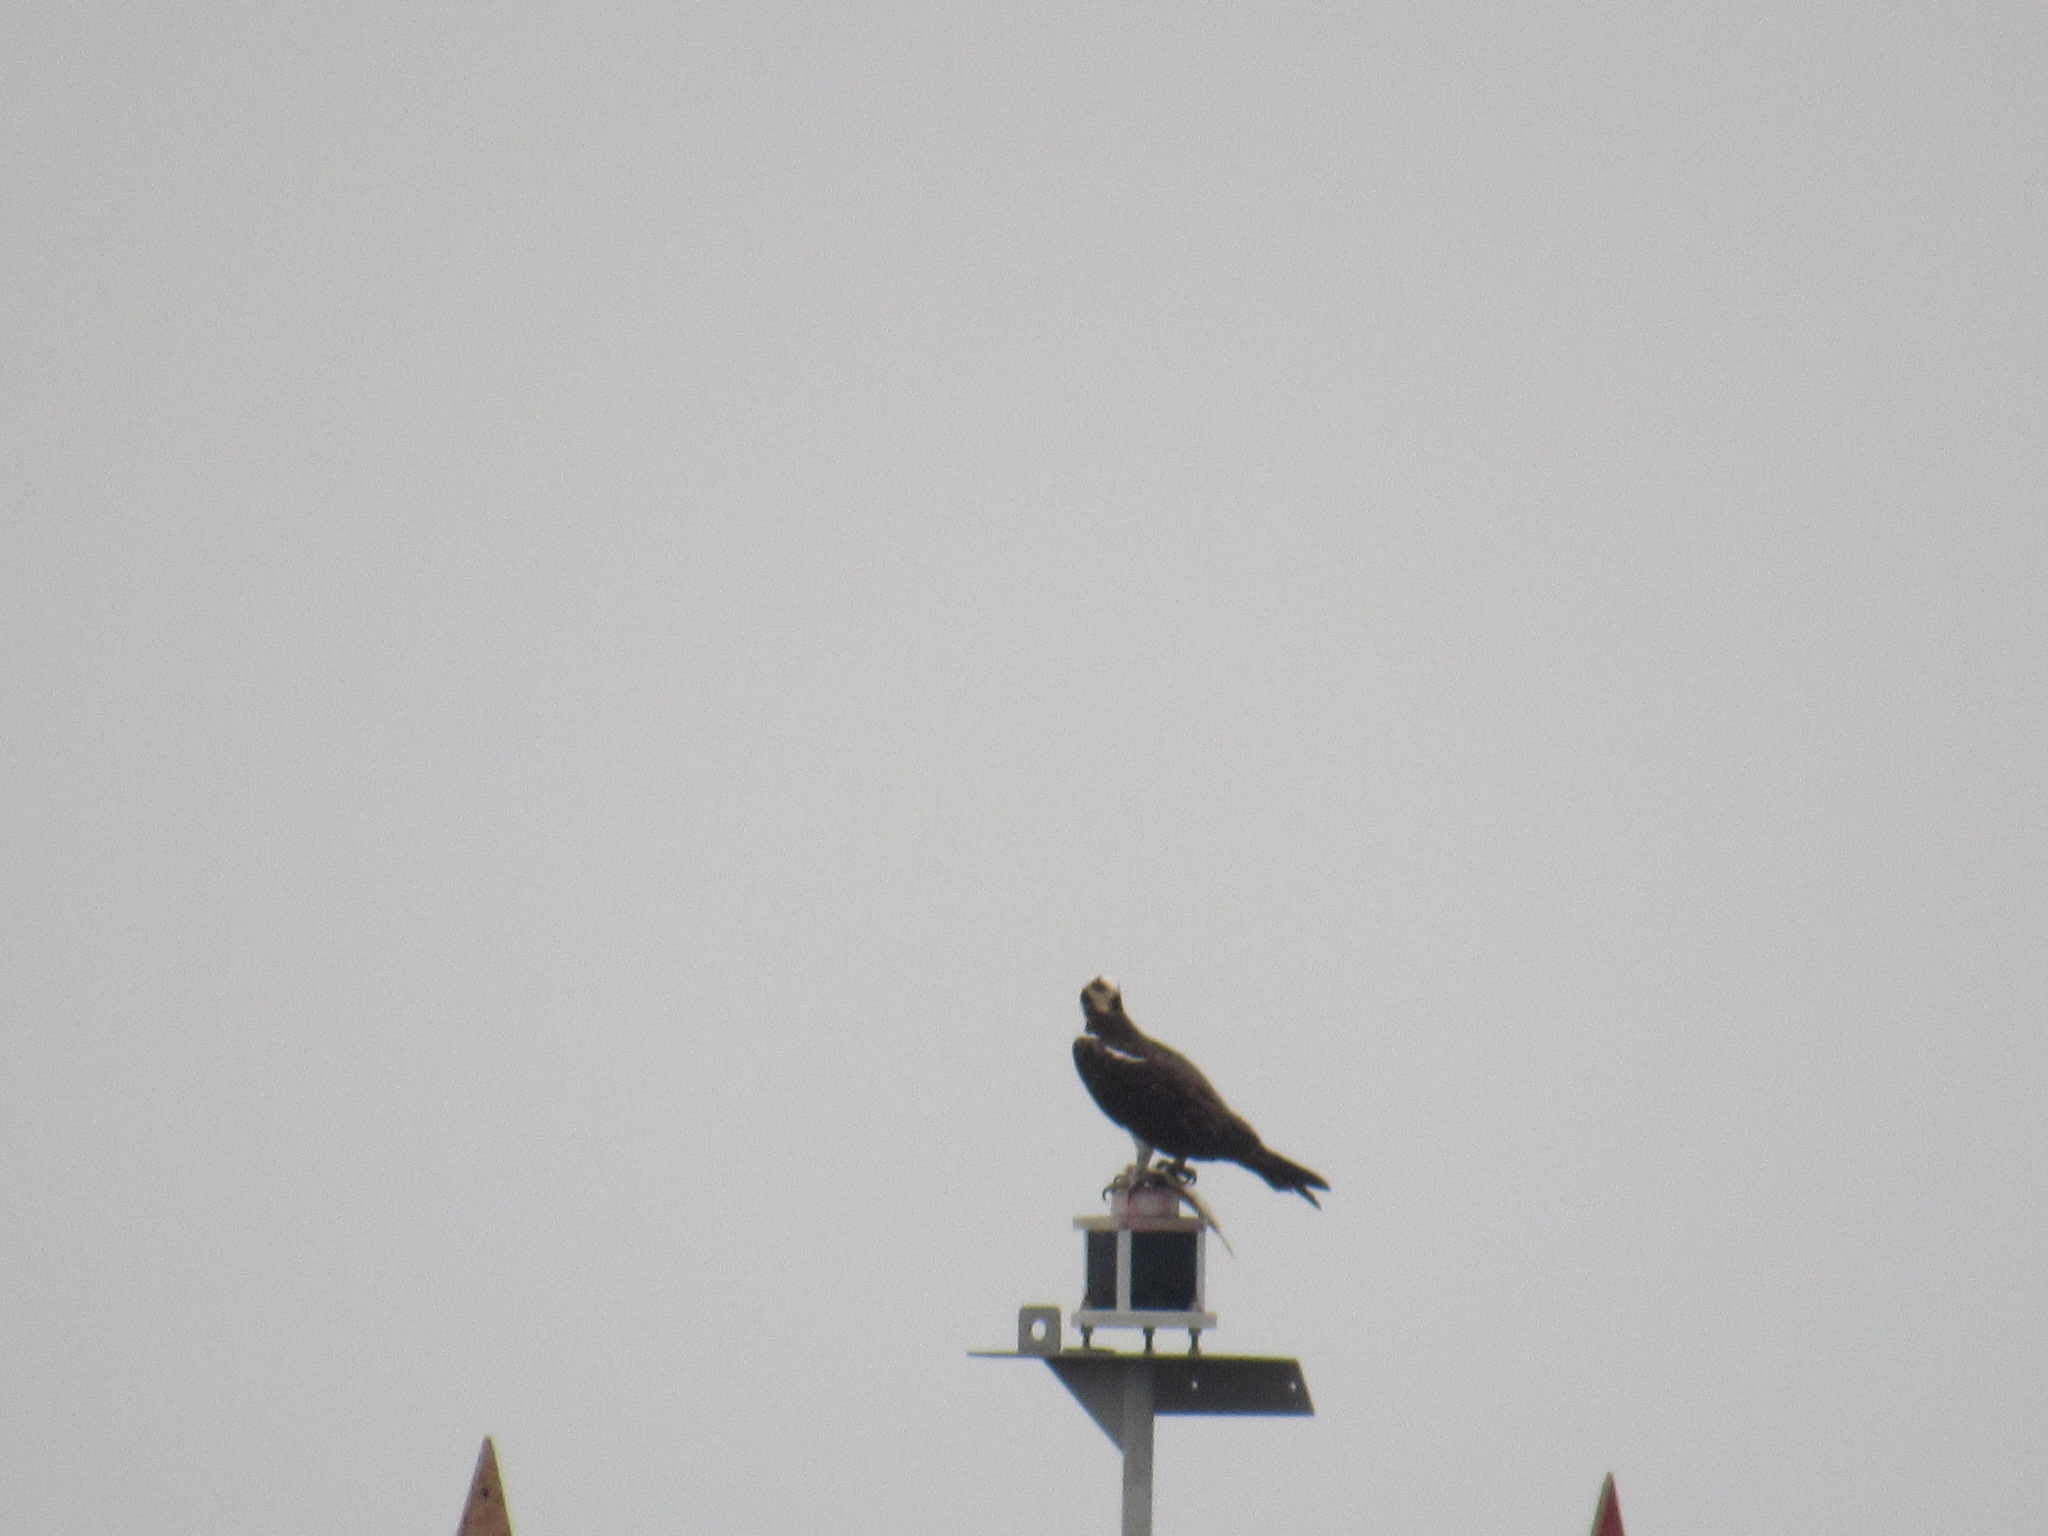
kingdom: Animalia
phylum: Chordata
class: Aves
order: Accipitriformes
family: Pandionidae
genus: Pandion
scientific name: Pandion haliaetus
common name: Osprey
